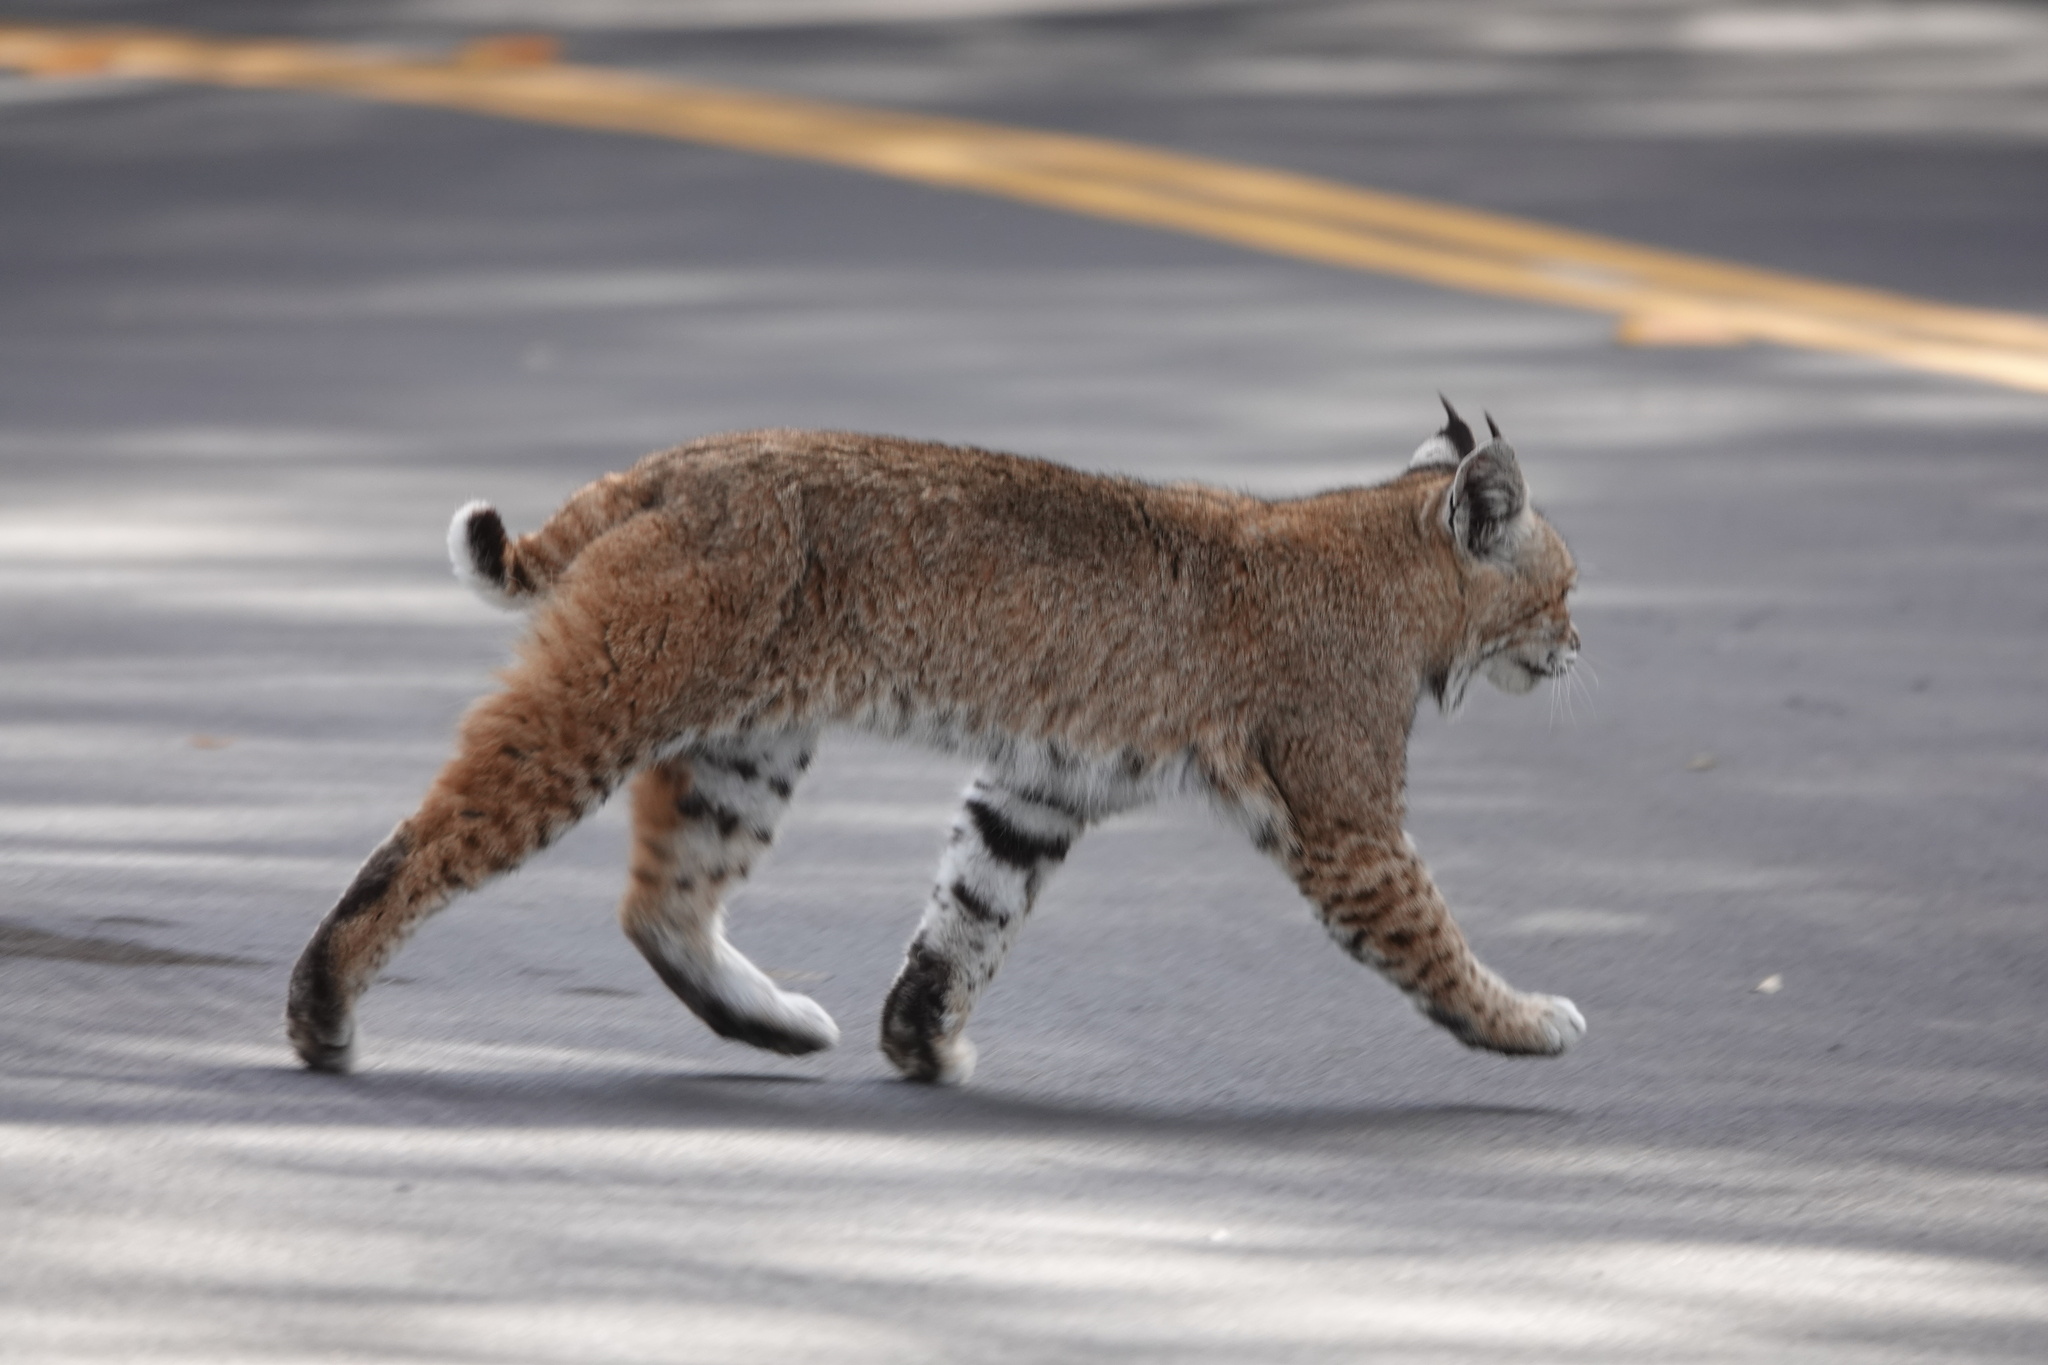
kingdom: Animalia
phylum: Chordata
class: Mammalia
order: Carnivora
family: Felidae
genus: Lynx
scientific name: Lynx rufus
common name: Bobcat
